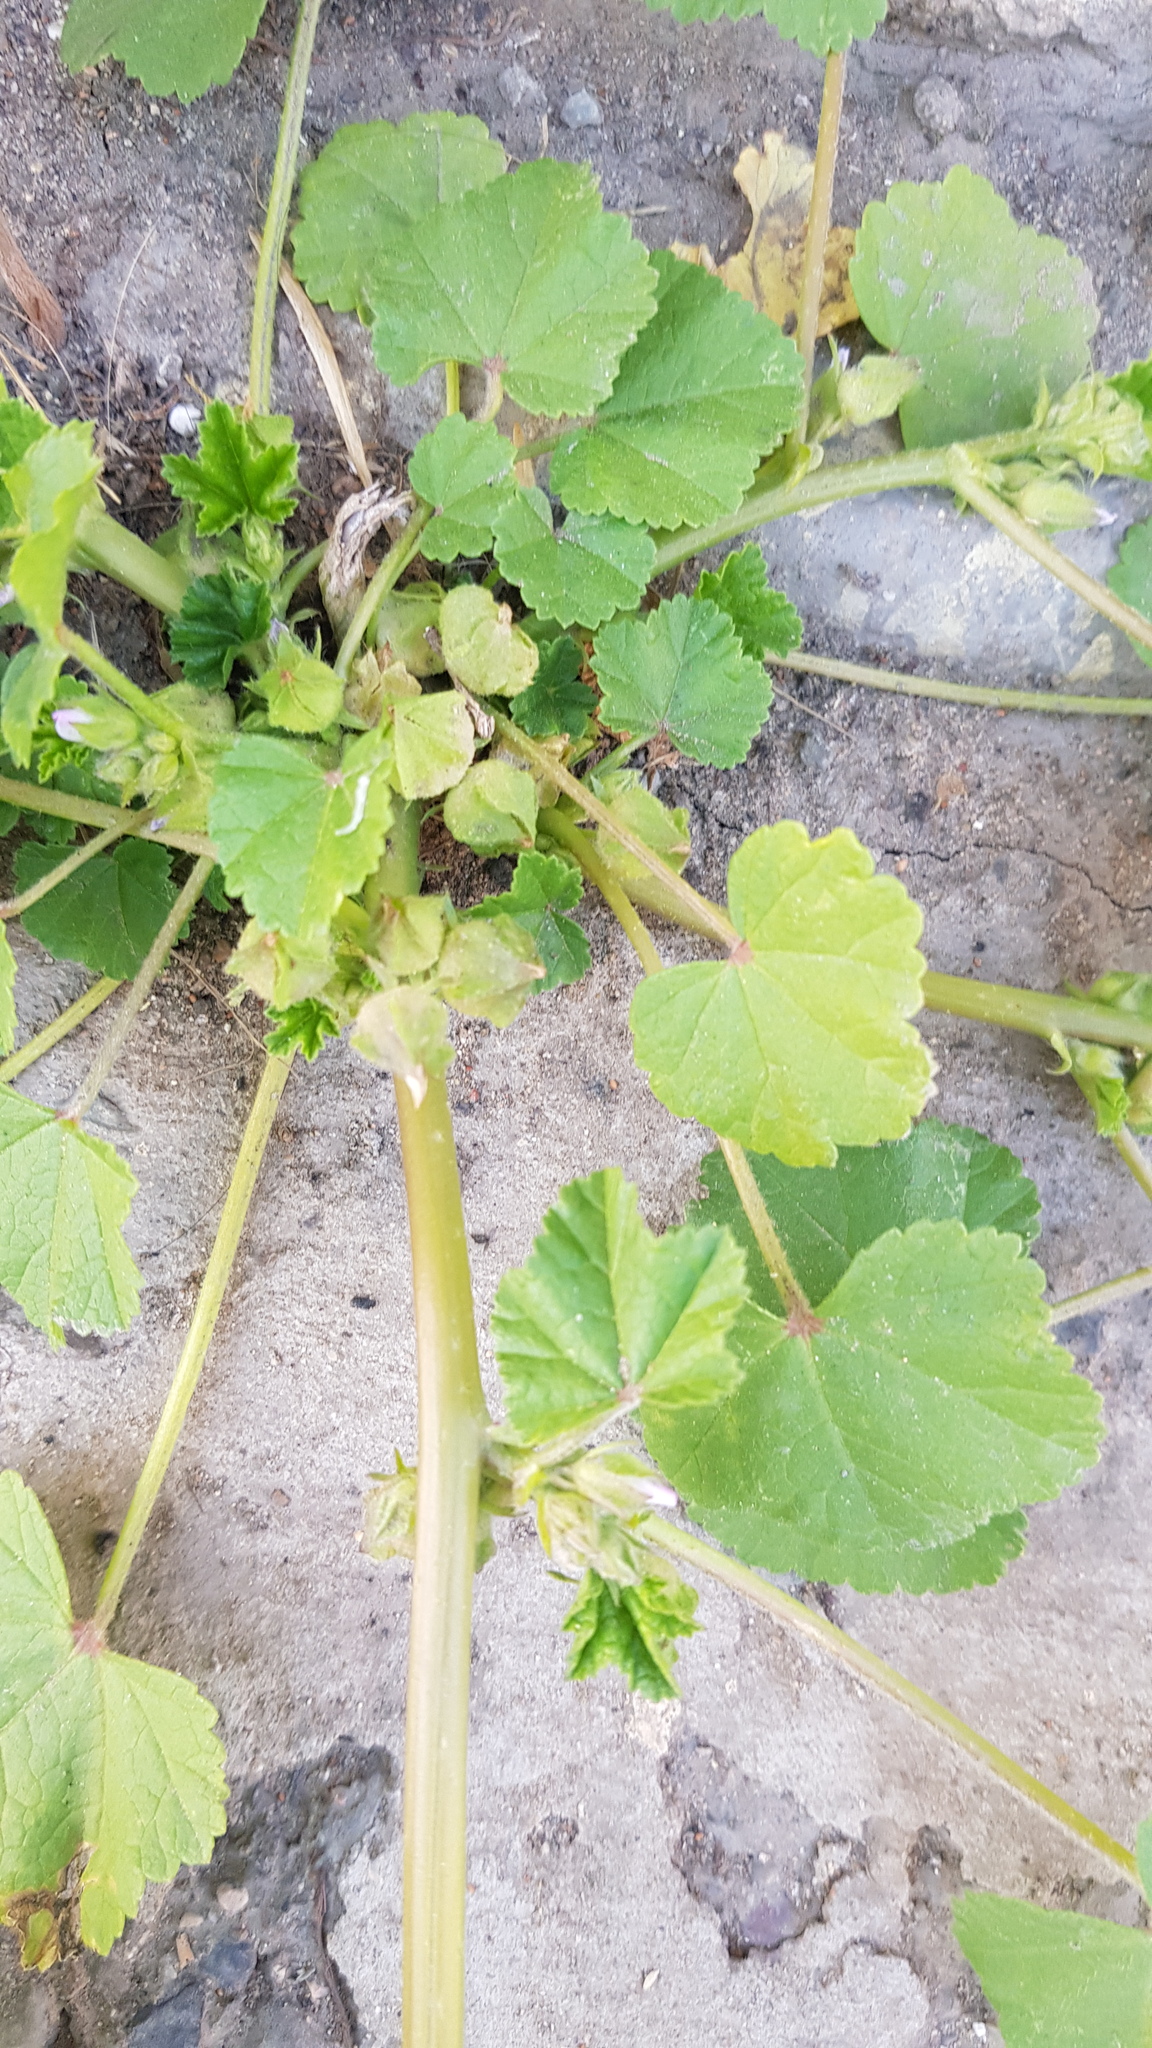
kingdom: Plantae
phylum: Tracheophyta
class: Magnoliopsida
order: Malvales
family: Malvaceae
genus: Malva
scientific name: Malva verticillata
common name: Chinese mallow
